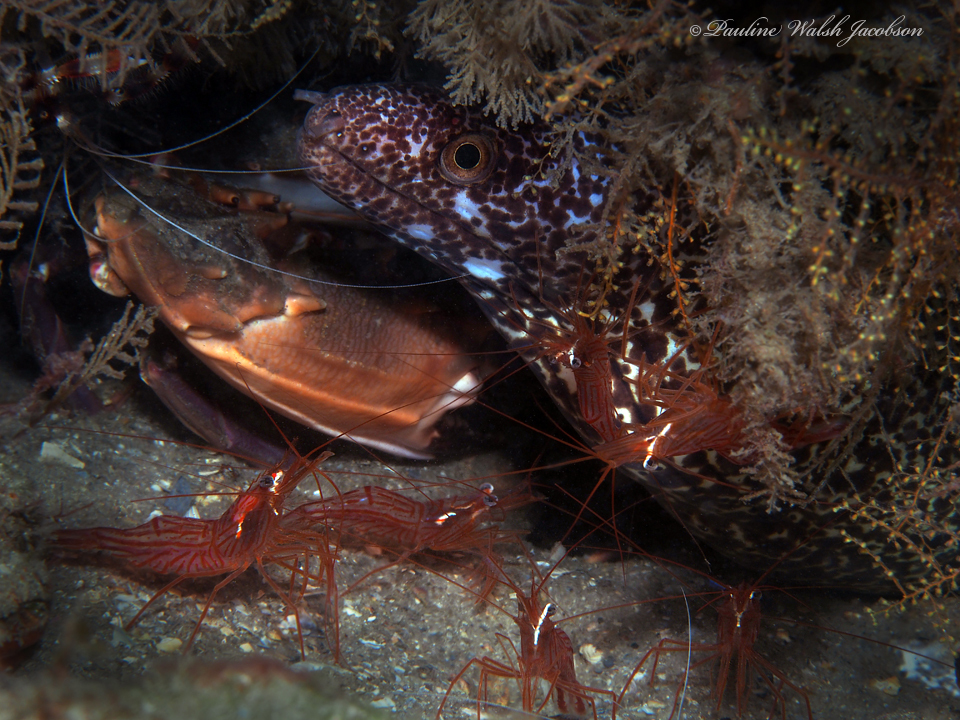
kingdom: Animalia
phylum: Chordata
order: Anguilliformes
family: Muraenidae
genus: Gymnothorax
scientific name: Gymnothorax moringa
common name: Spotted moray
